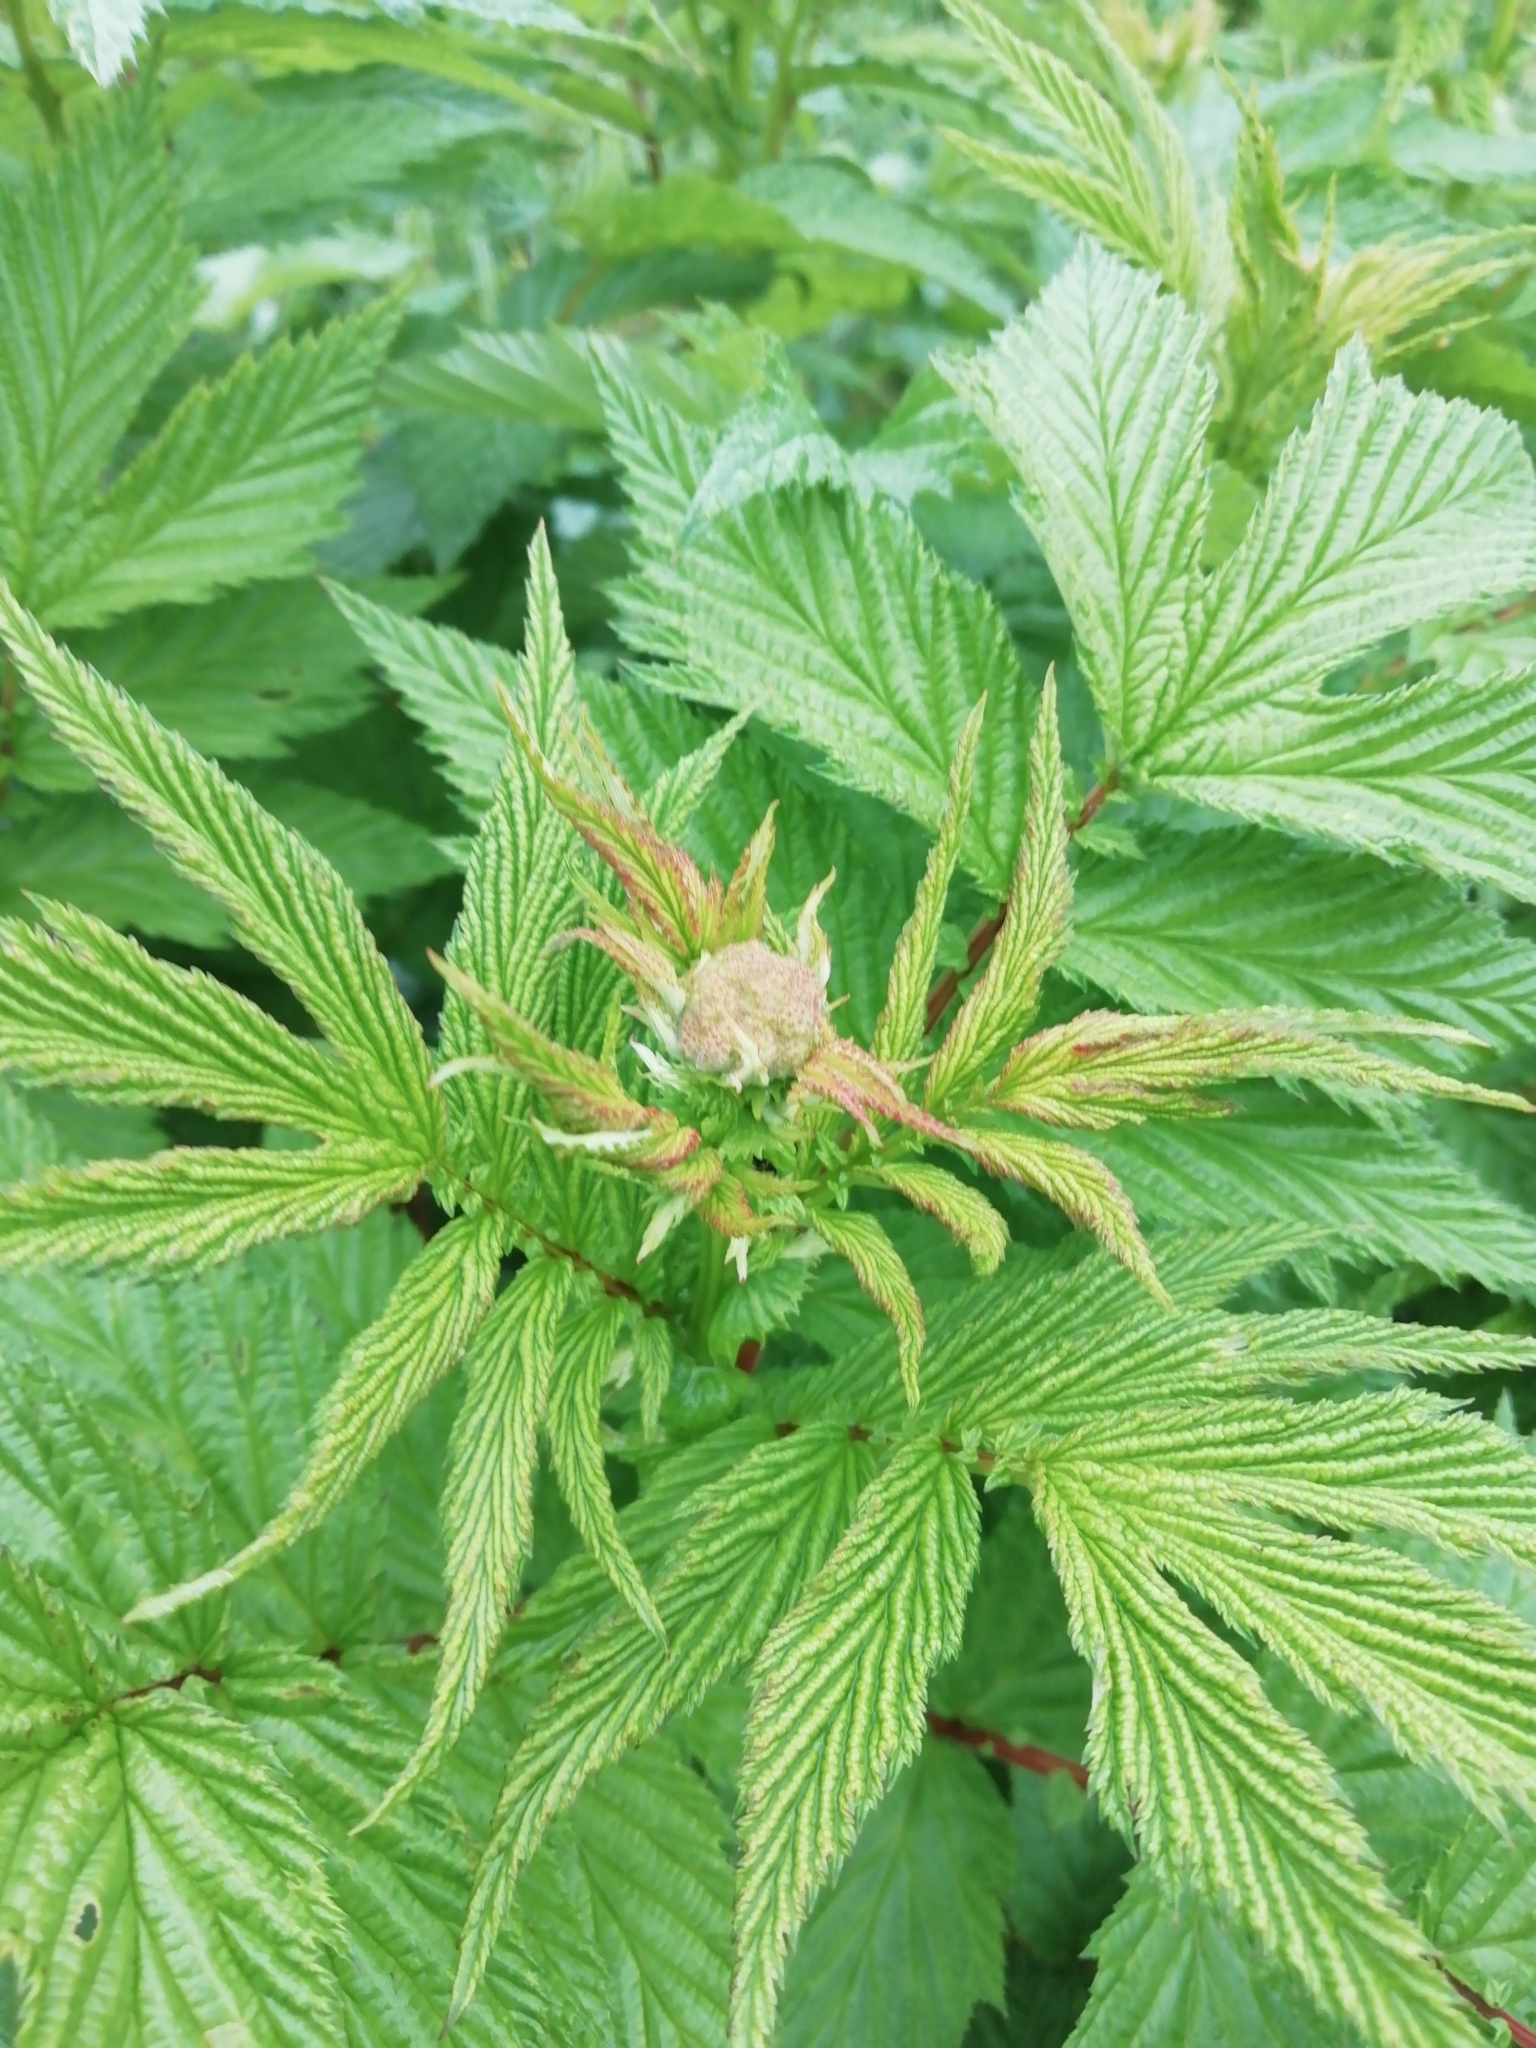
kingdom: Plantae
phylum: Tracheophyta
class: Magnoliopsida
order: Rosales
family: Rosaceae
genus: Filipendula
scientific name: Filipendula ulmaria
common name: Meadowsweet
